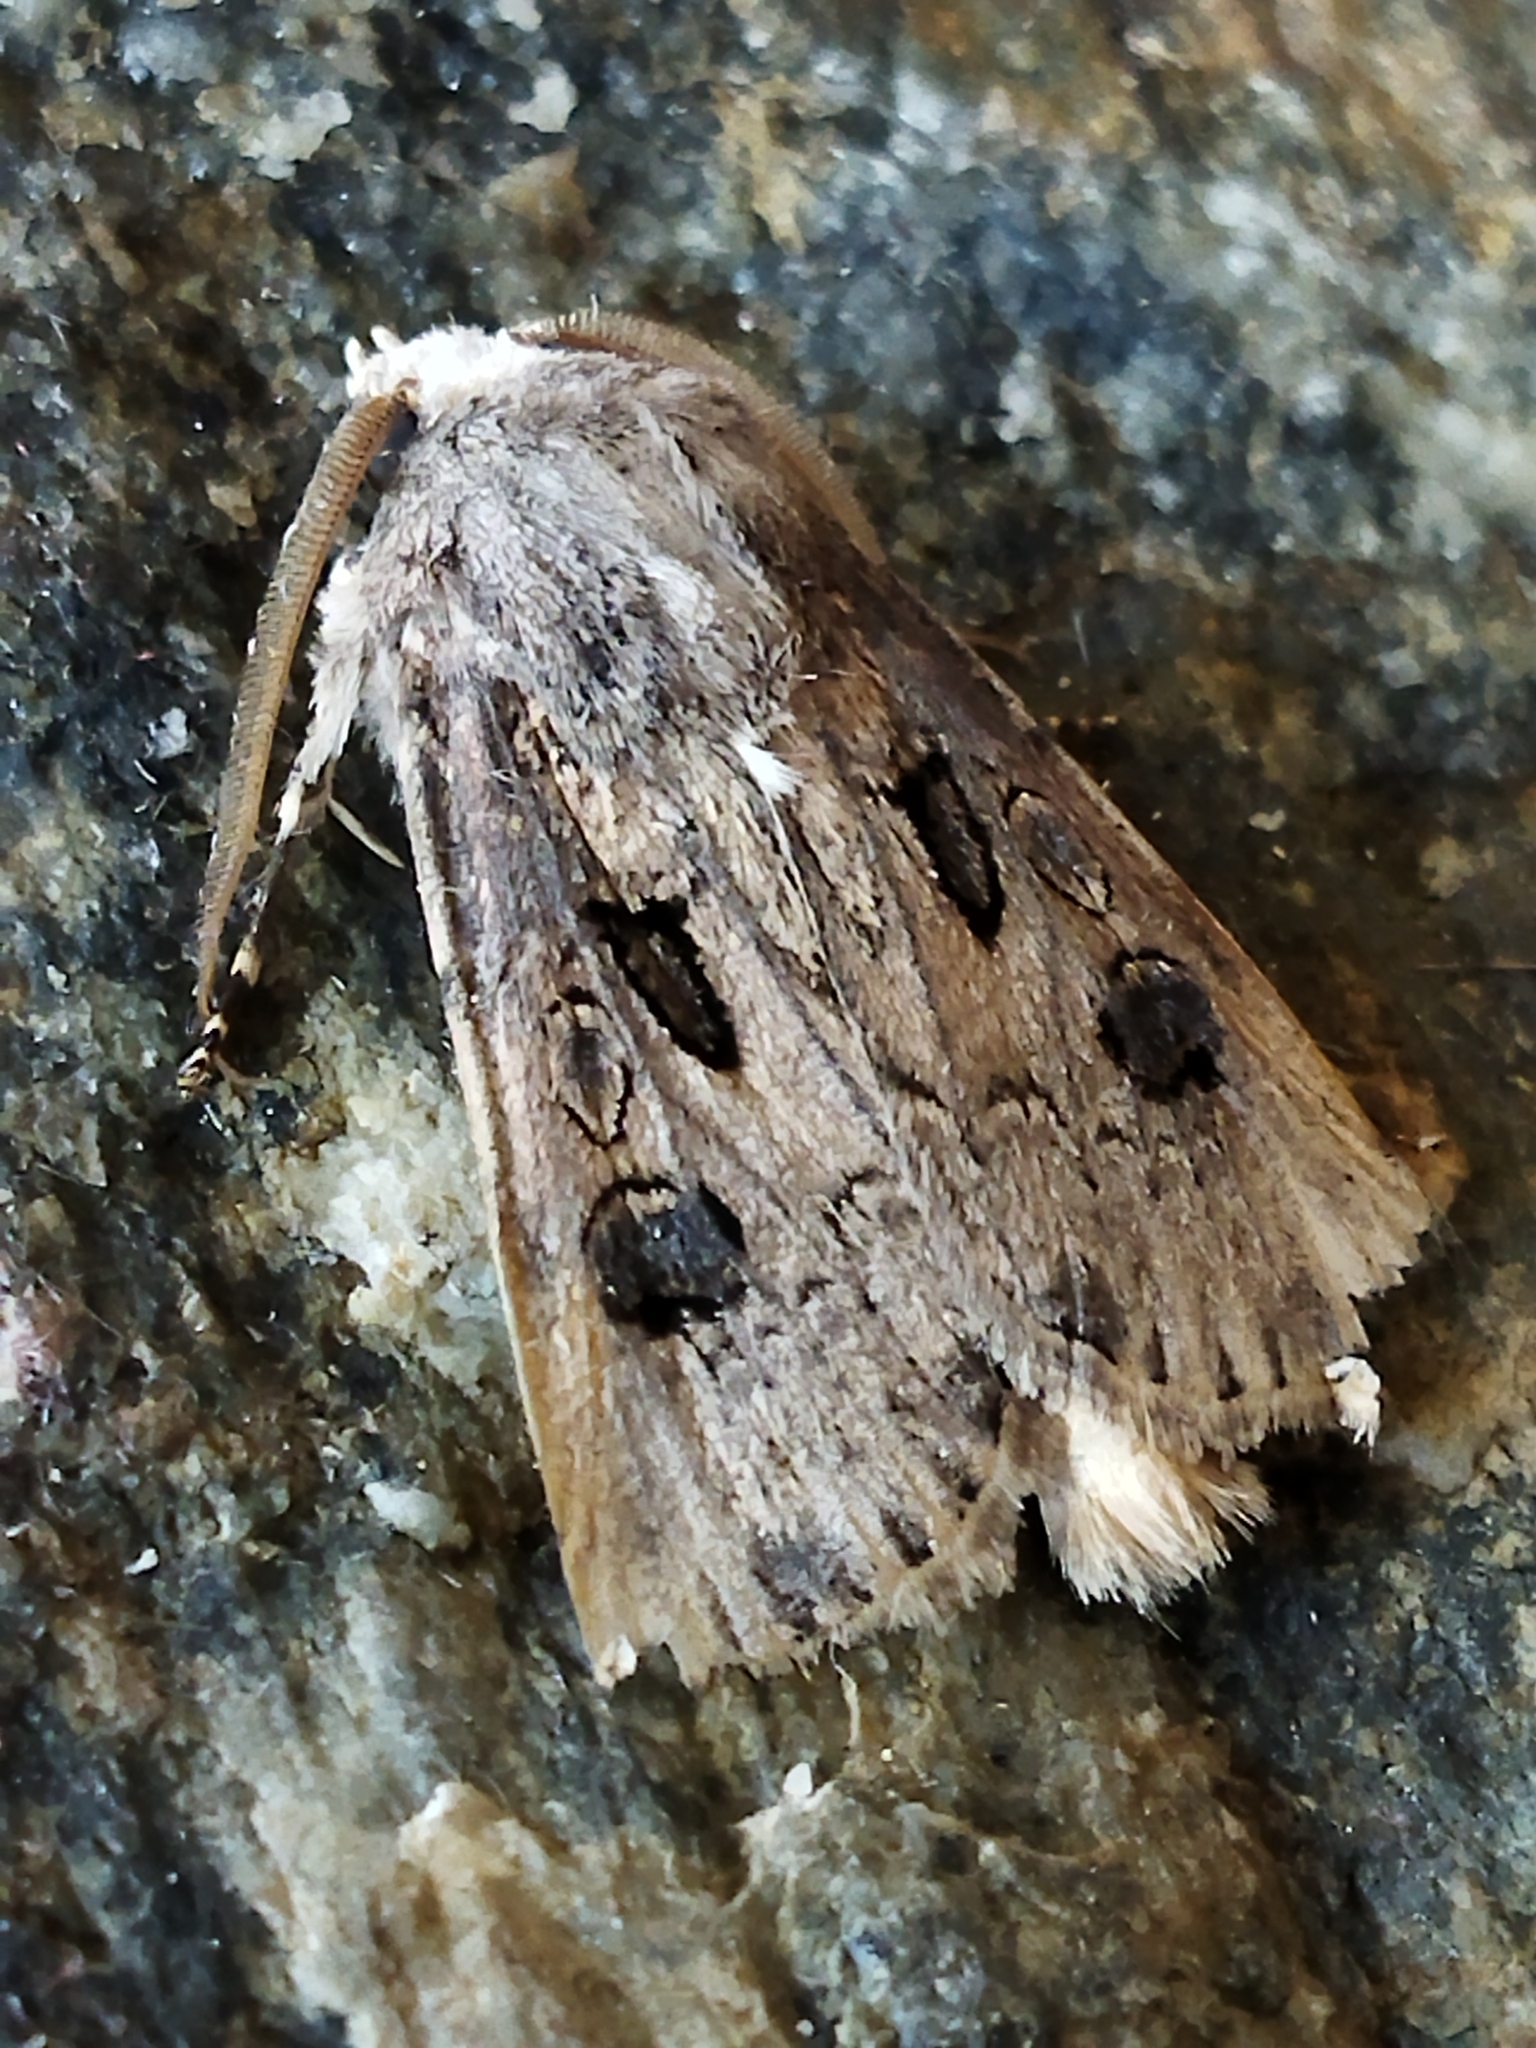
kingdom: Animalia
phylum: Arthropoda
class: Insecta
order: Lepidoptera
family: Noctuidae
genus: Agrotis
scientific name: Agrotis bigramma
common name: Great dart
